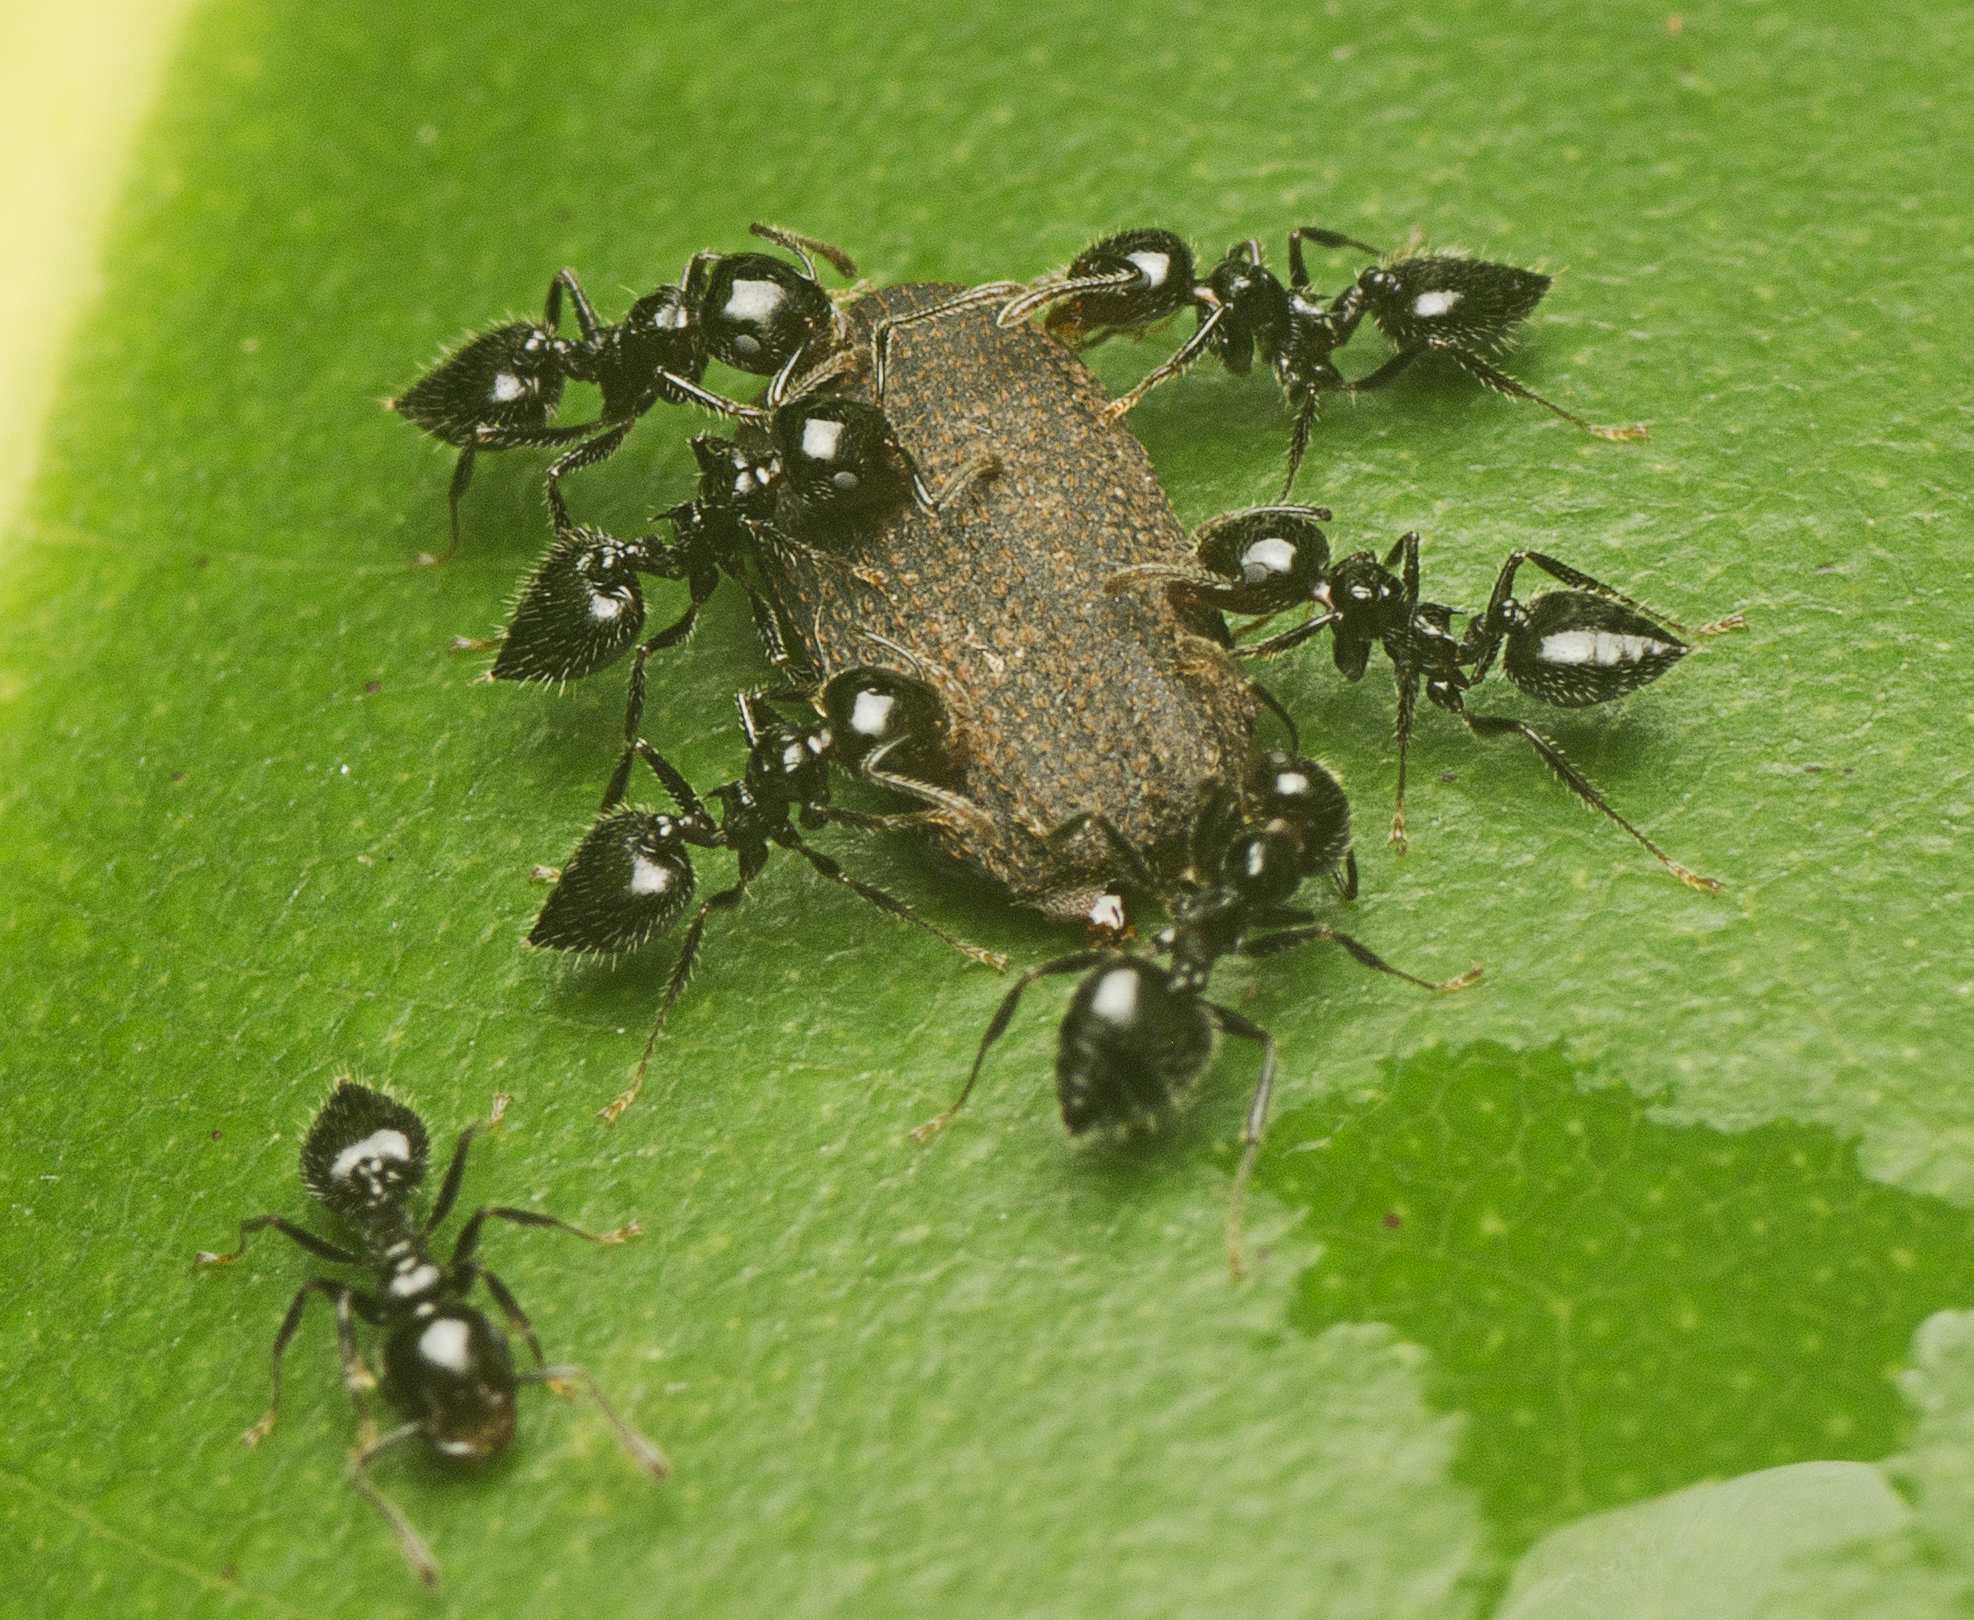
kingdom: Animalia
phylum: Arthropoda
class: Insecta
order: Hymenoptera
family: Formicidae
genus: Crematogaster
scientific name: Crematogaster laeviceps
